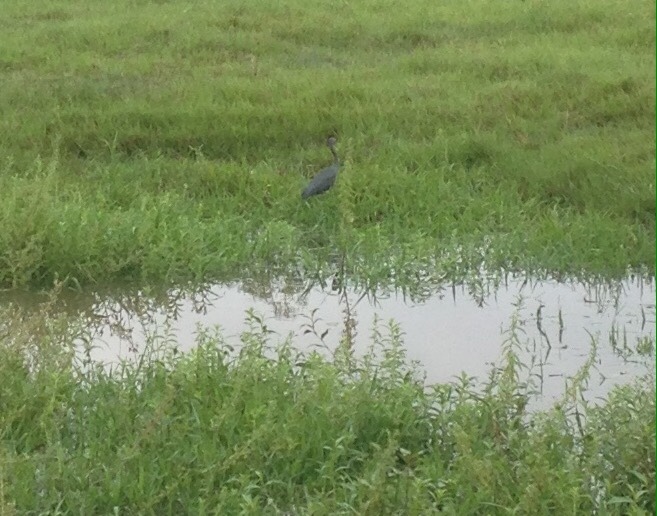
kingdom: Animalia
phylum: Chordata
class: Aves
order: Pelecaniformes
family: Ardeidae
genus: Egretta
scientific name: Egretta caerulea
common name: Little blue heron
